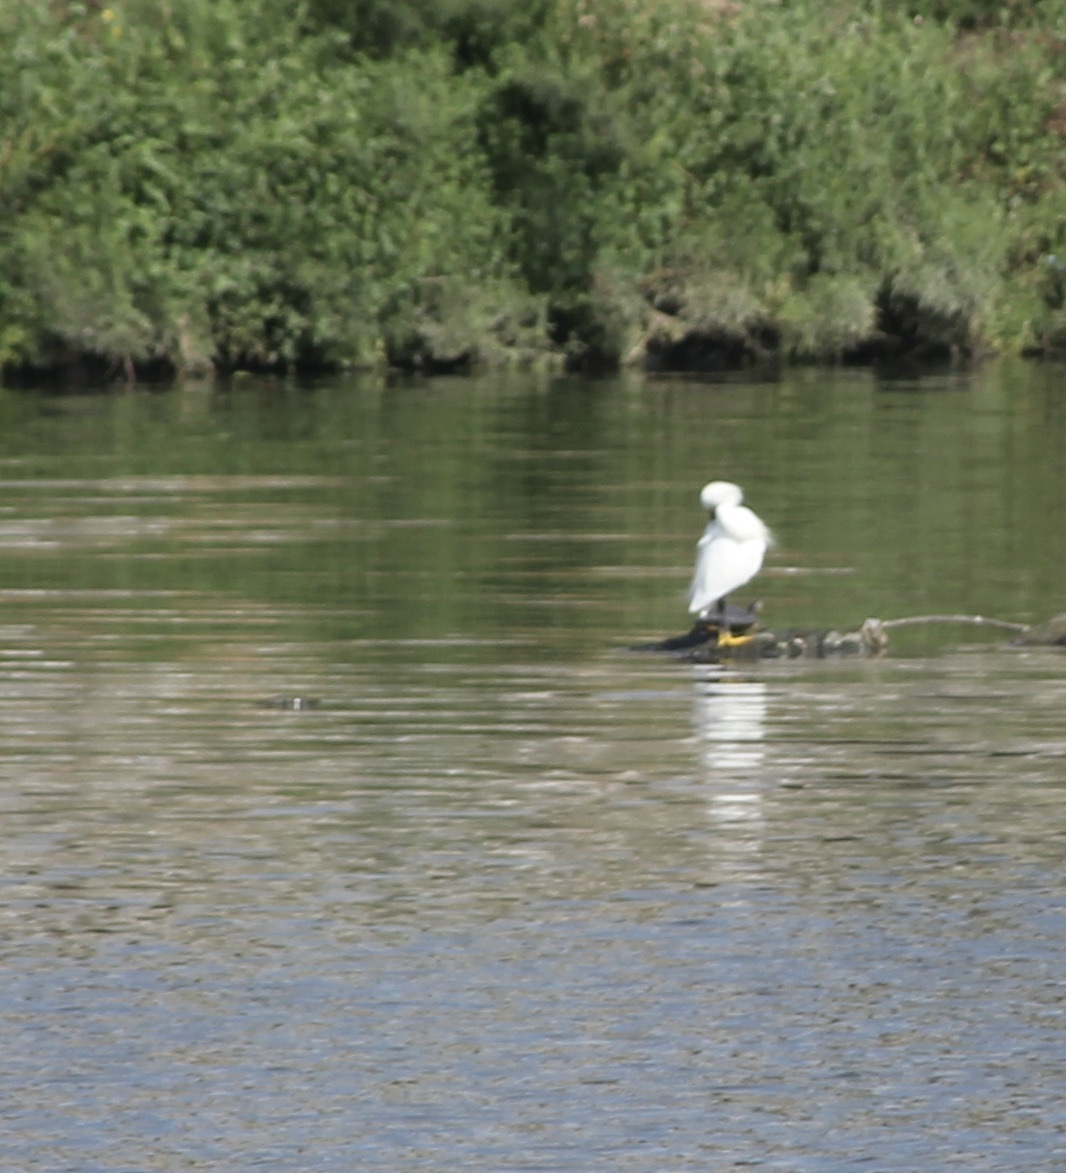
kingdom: Animalia
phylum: Chordata
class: Aves
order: Pelecaniformes
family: Ardeidae
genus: Egretta
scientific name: Egretta thula
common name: Snowy egret
